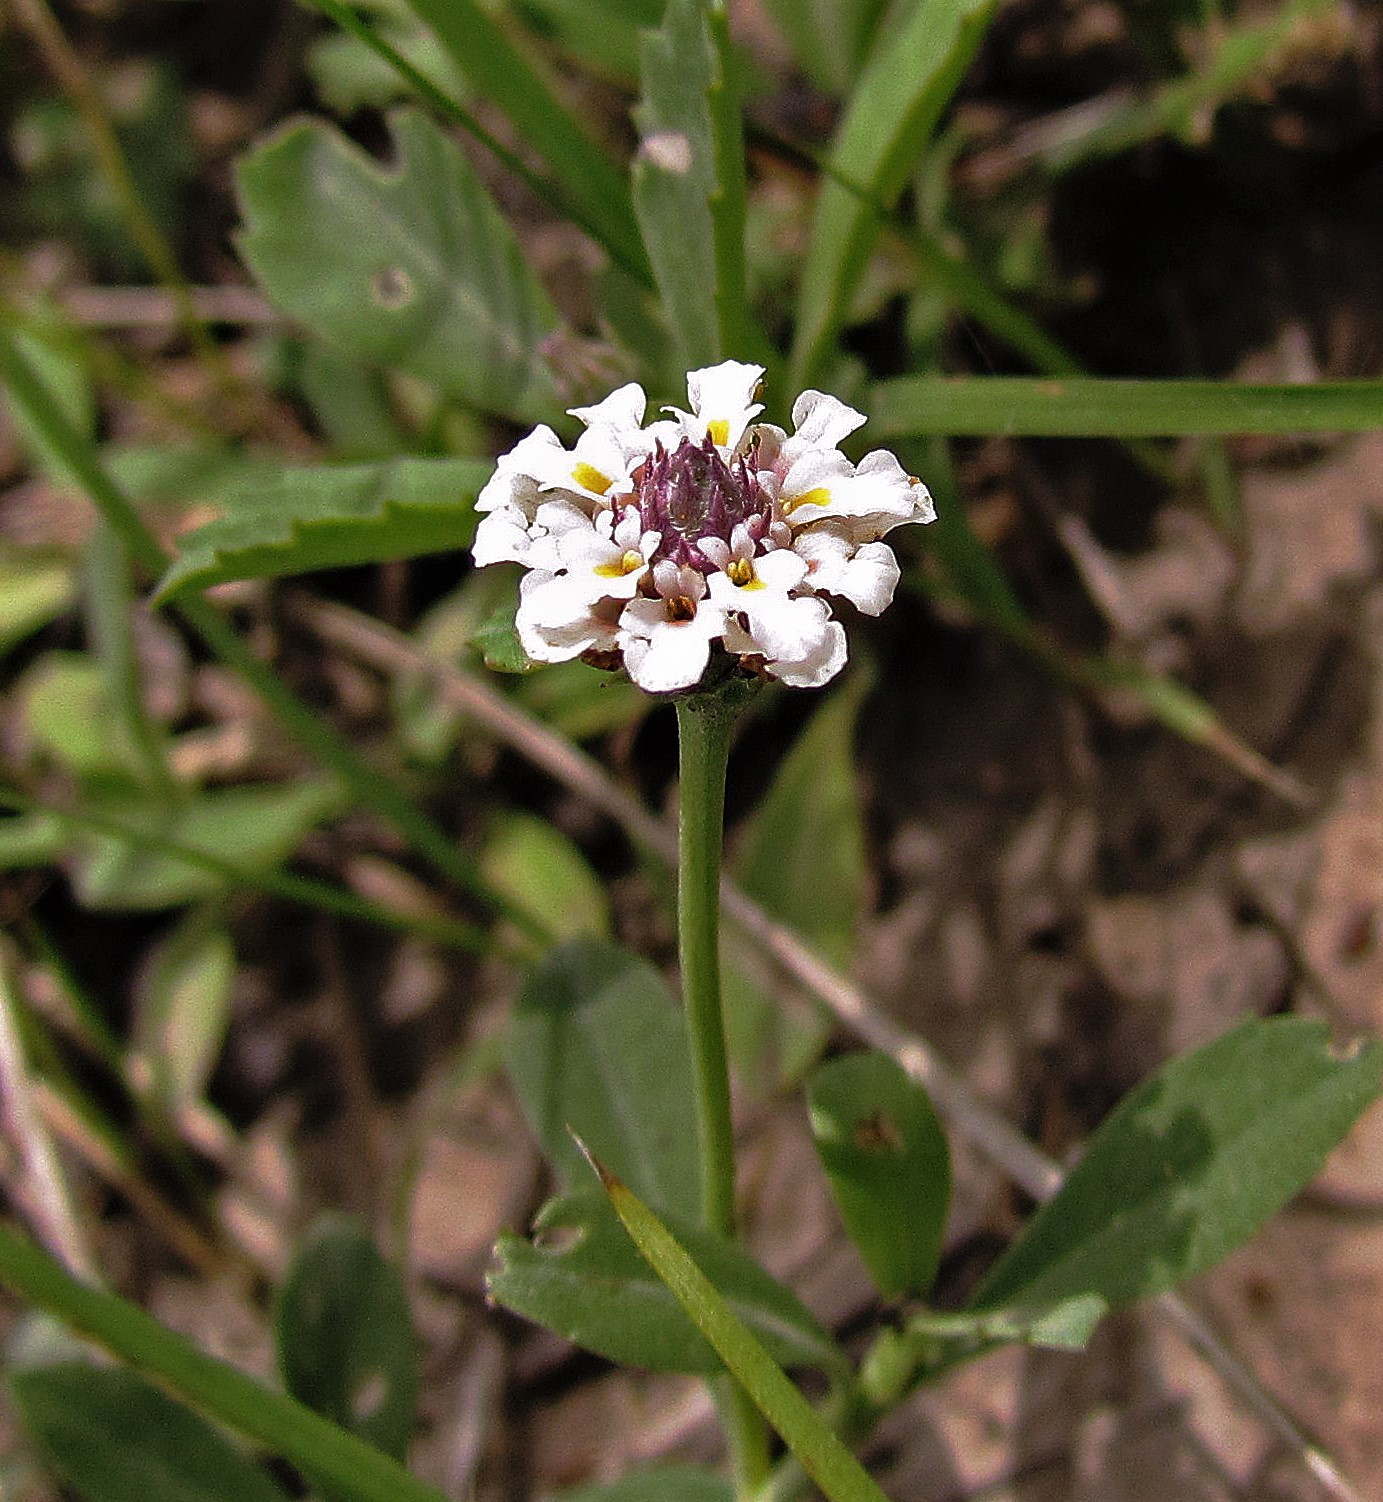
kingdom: Plantae
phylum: Tracheophyta
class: Magnoliopsida
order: Lamiales
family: Verbenaceae
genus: Phyla
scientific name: Phyla nodiflora
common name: Frogfruit
